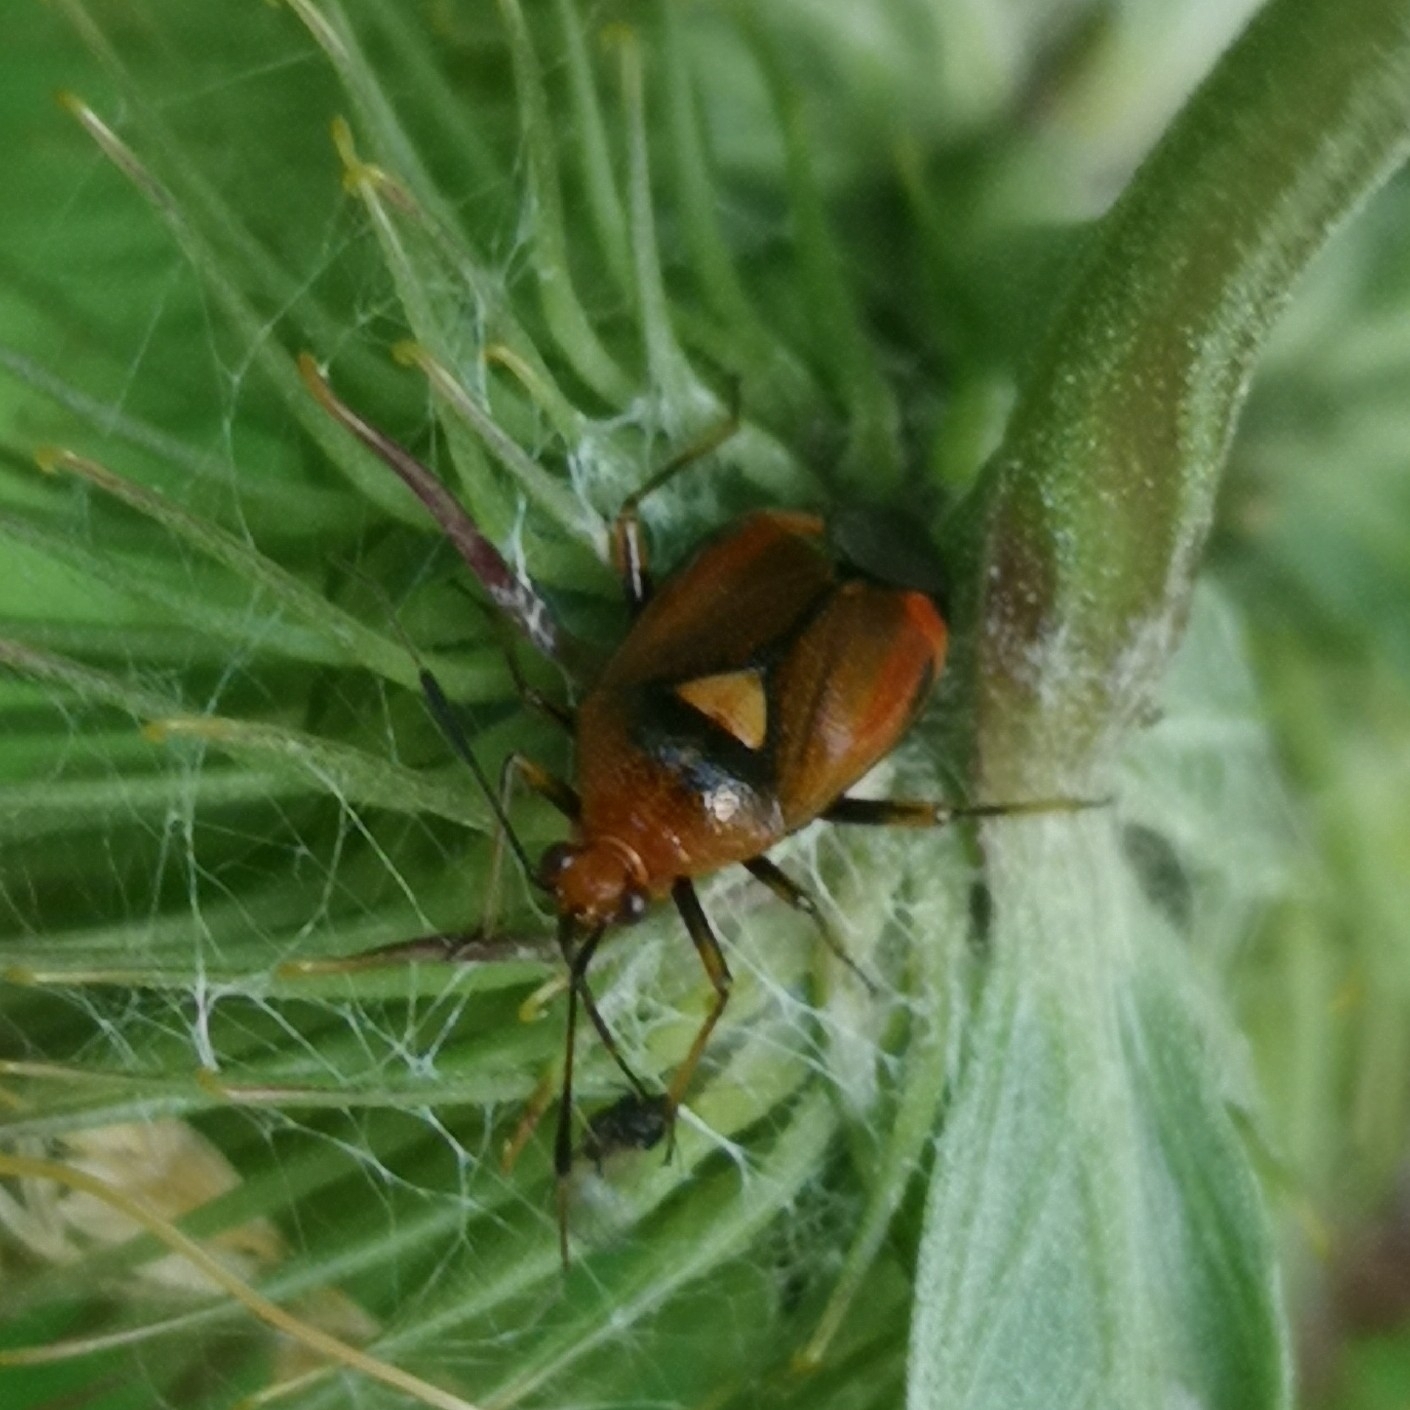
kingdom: Animalia
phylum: Arthropoda
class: Insecta
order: Hemiptera
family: Miridae
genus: Deraeocoris
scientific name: Deraeocoris ruber
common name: Plant bug
